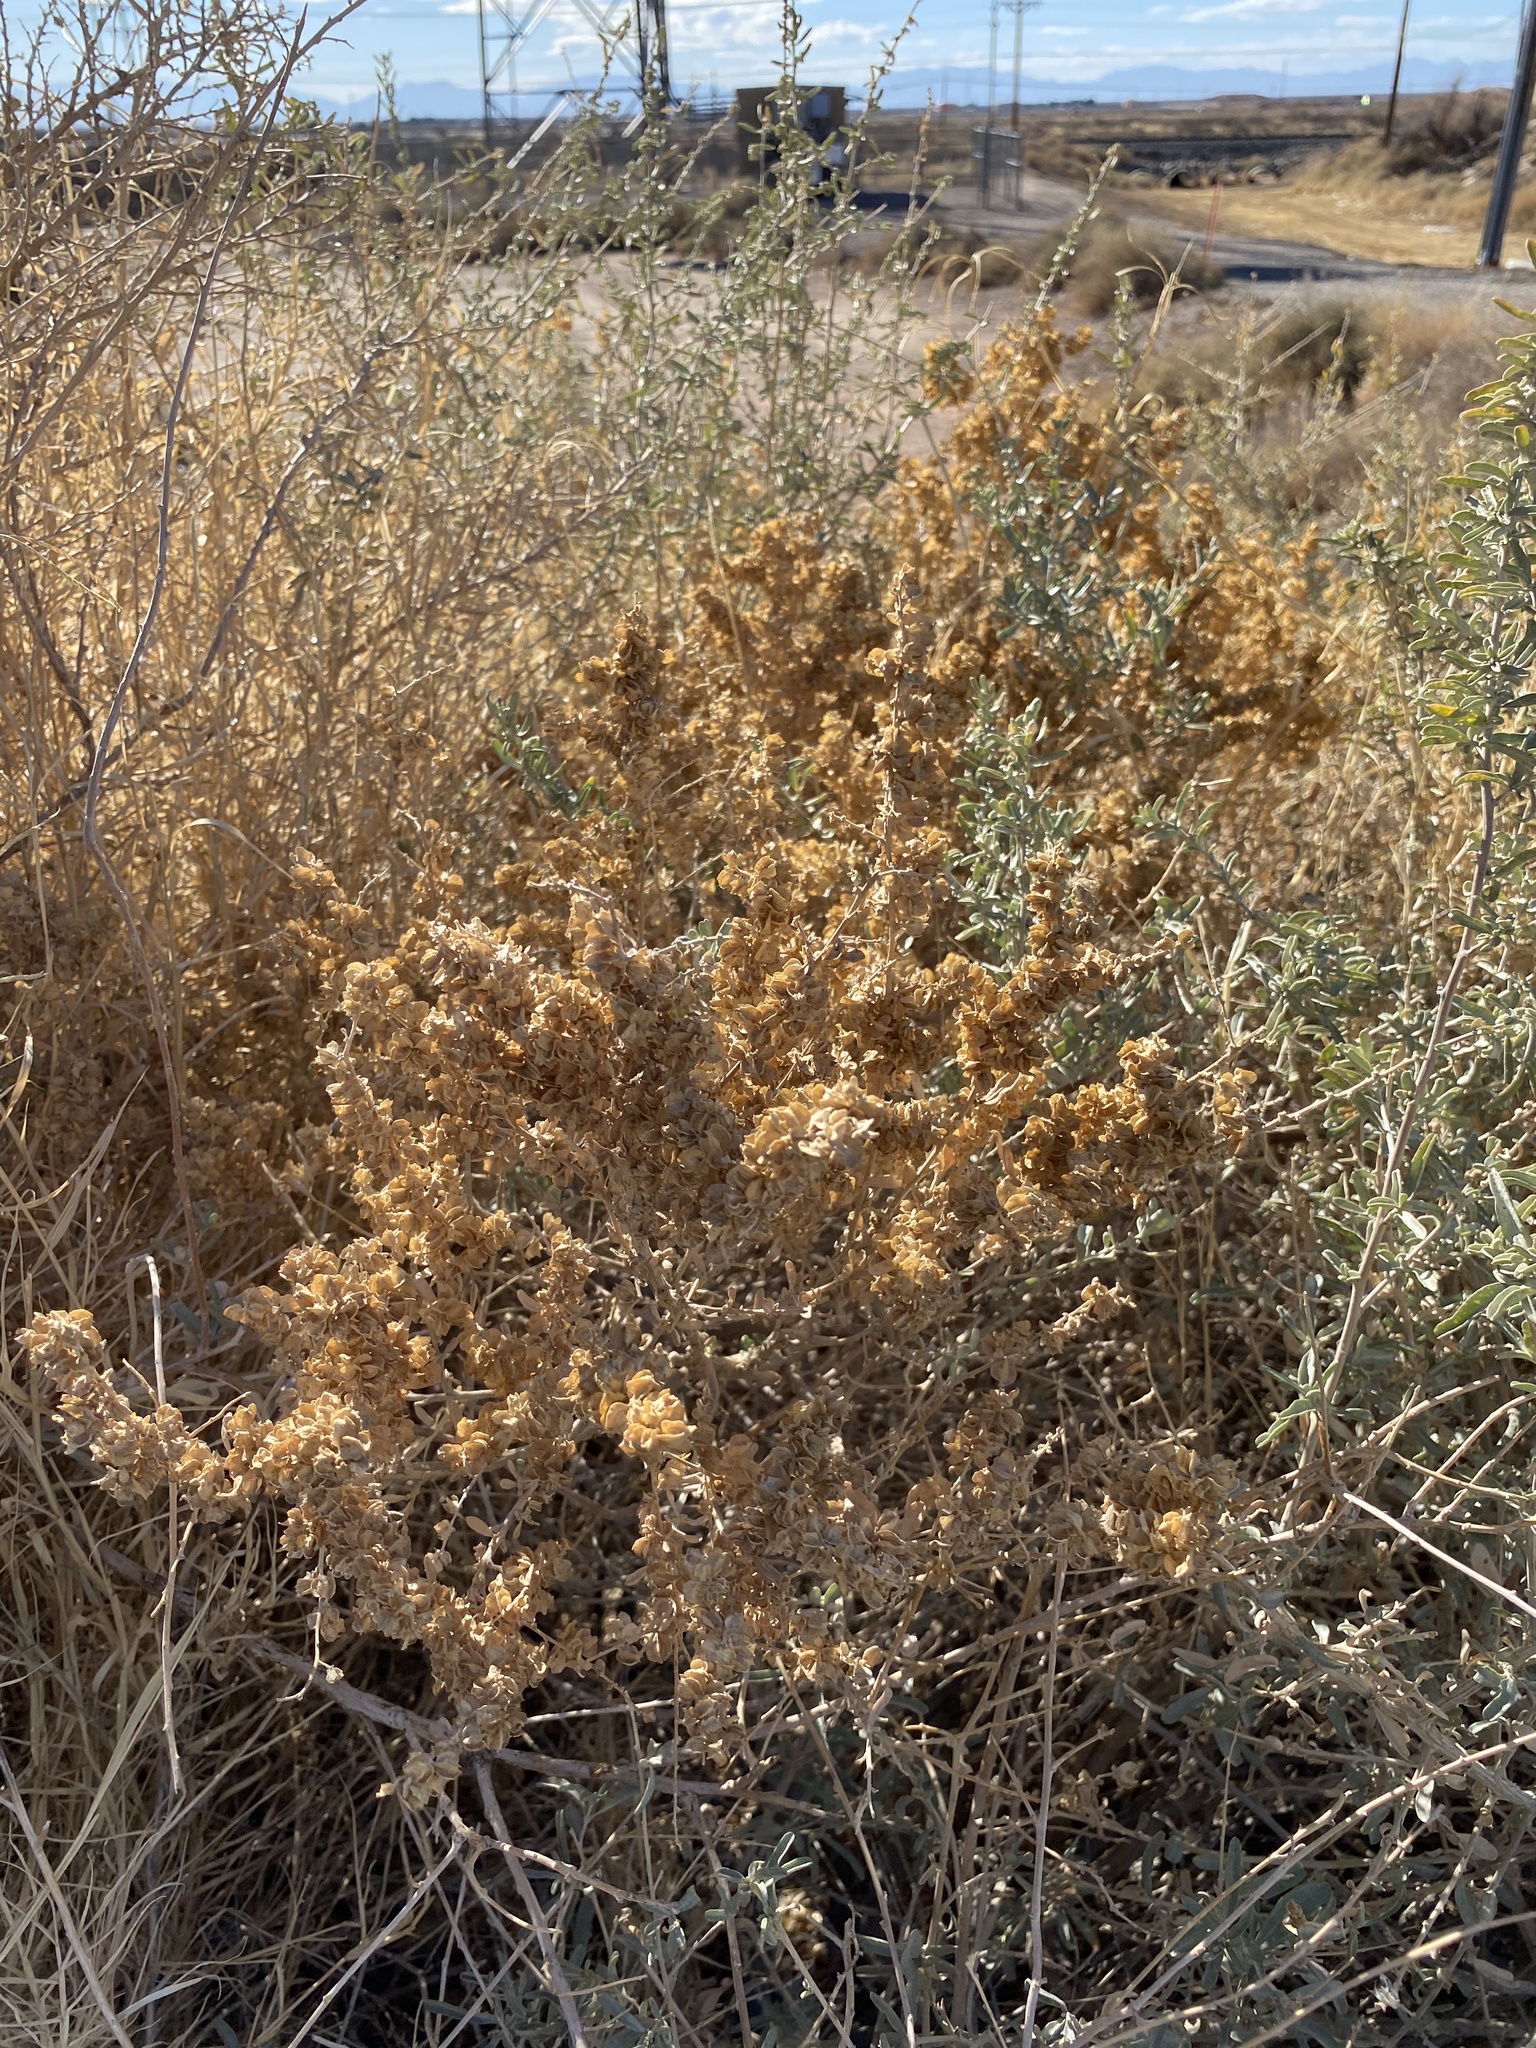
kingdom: Plantae
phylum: Tracheophyta
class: Magnoliopsida
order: Caryophyllales
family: Amaranthaceae
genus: Atriplex
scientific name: Atriplex canescens
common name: Four-wing saltbush
